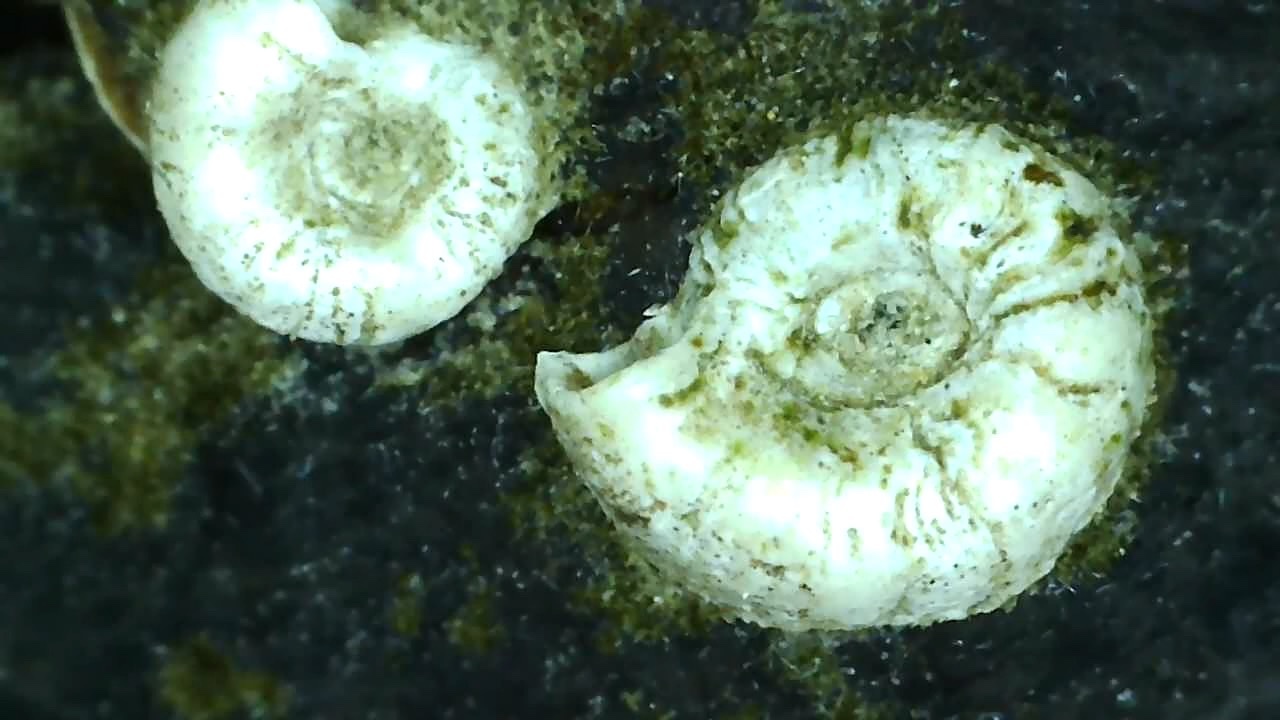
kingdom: Animalia
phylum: Annelida
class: Polychaeta
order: Sabellida
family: Serpulidae
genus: Spirorbis
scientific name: Spirorbis spirorbis
